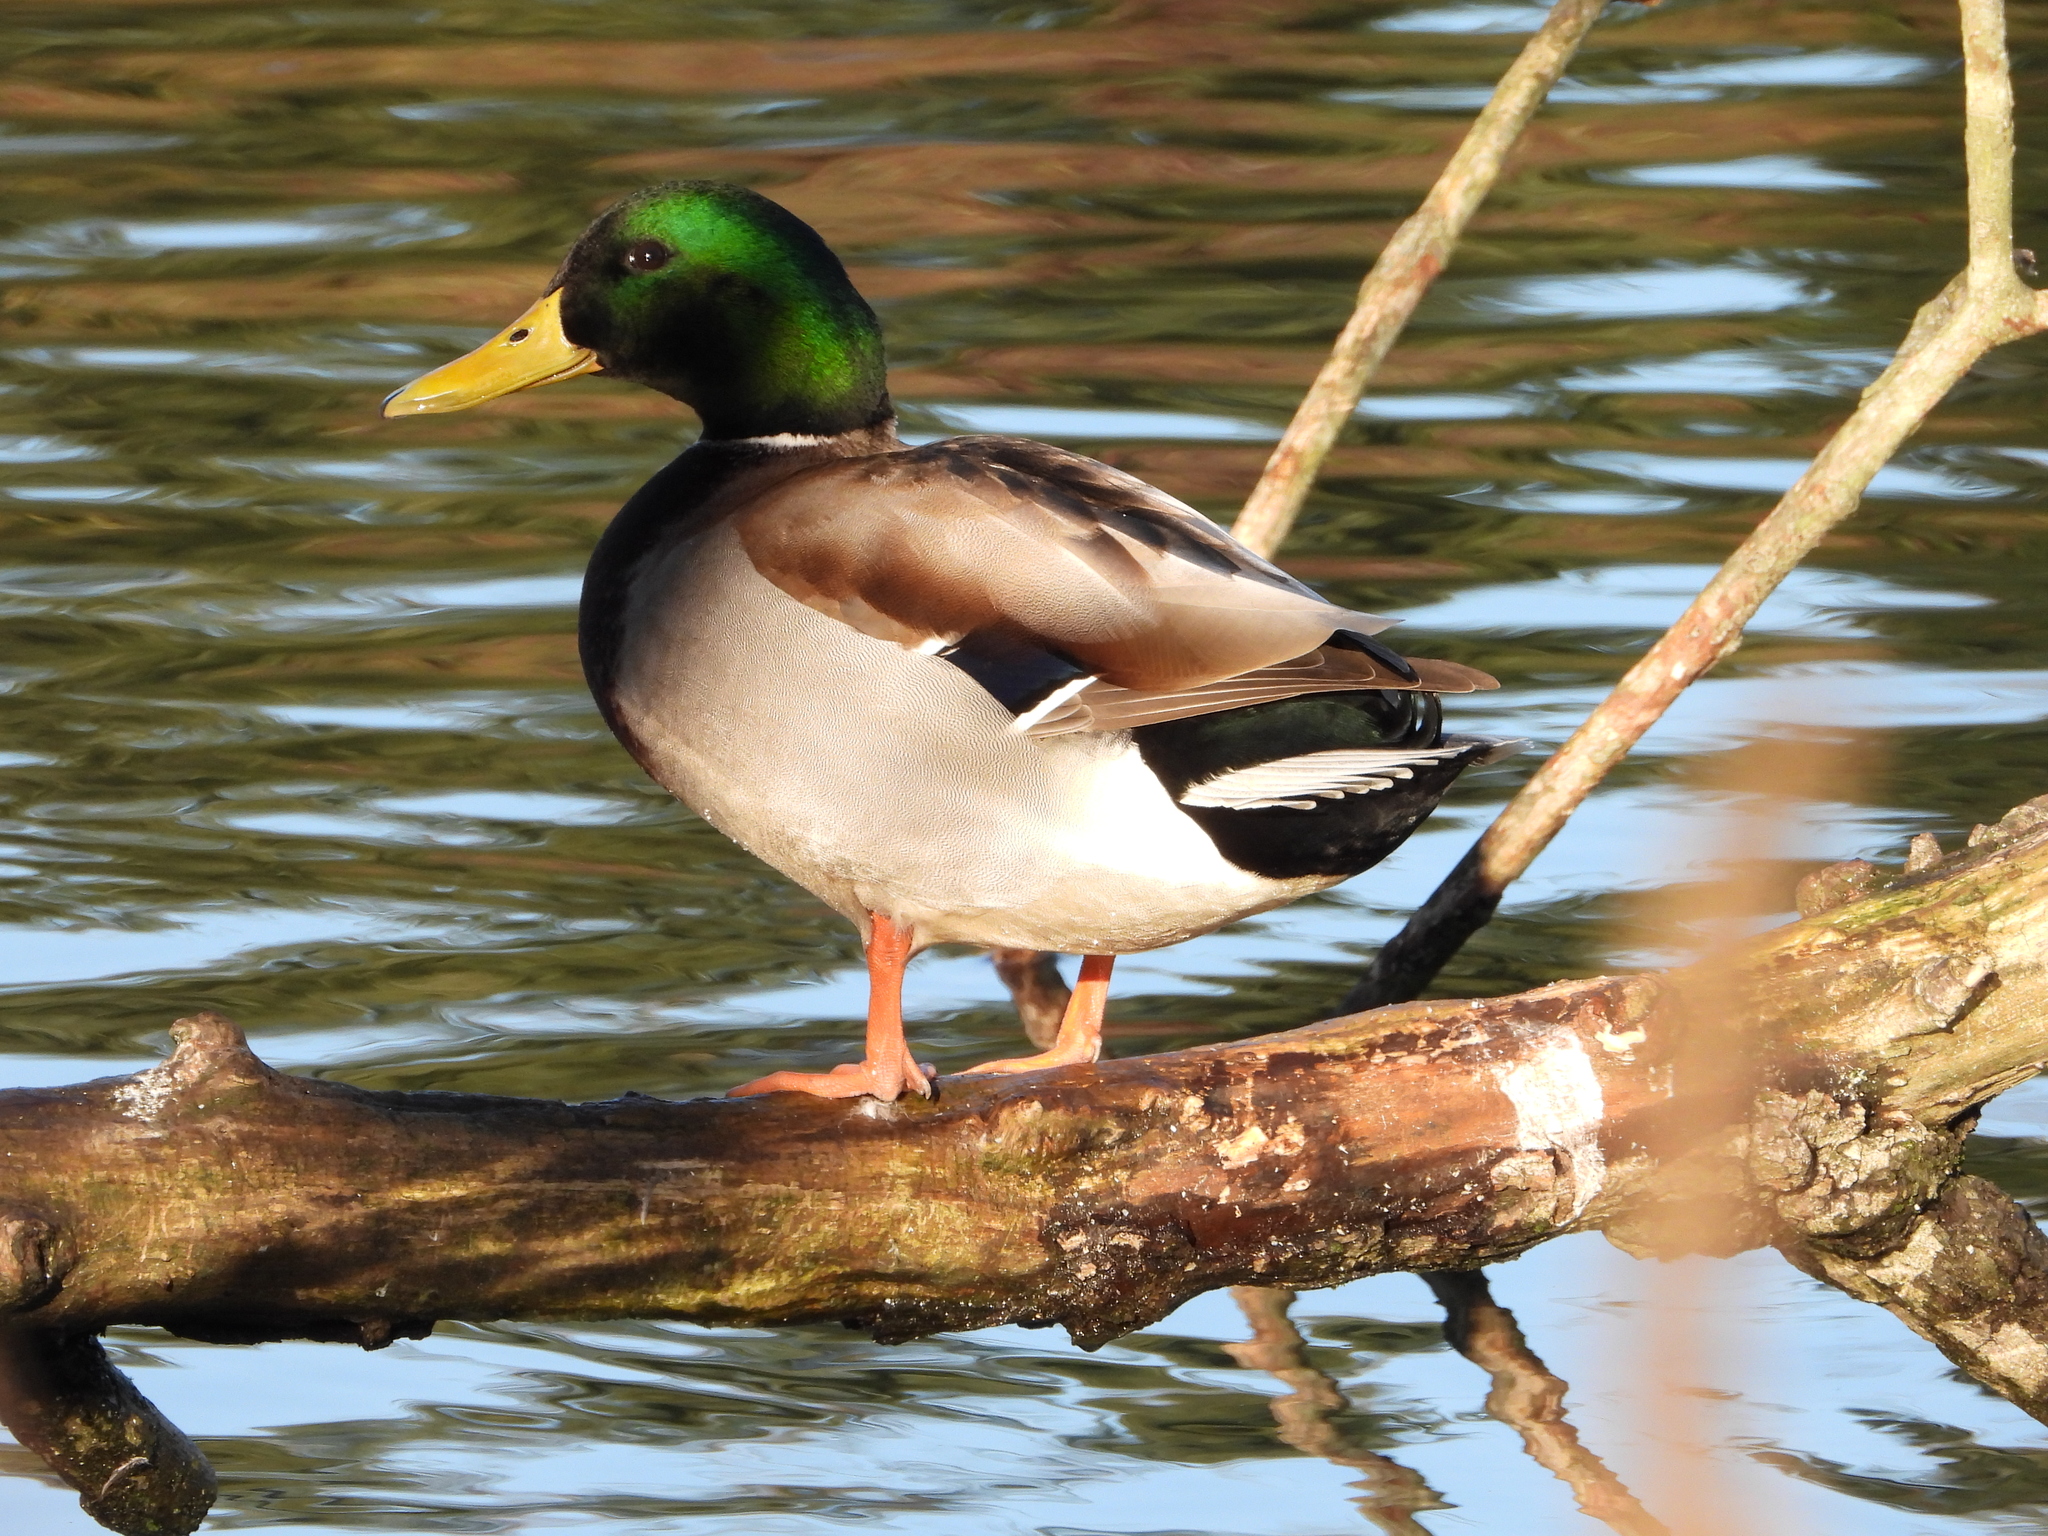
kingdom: Animalia
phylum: Chordata
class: Aves
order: Anseriformes
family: Anatidae
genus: Anas
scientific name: Anas platyrhynchos
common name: Mallard
